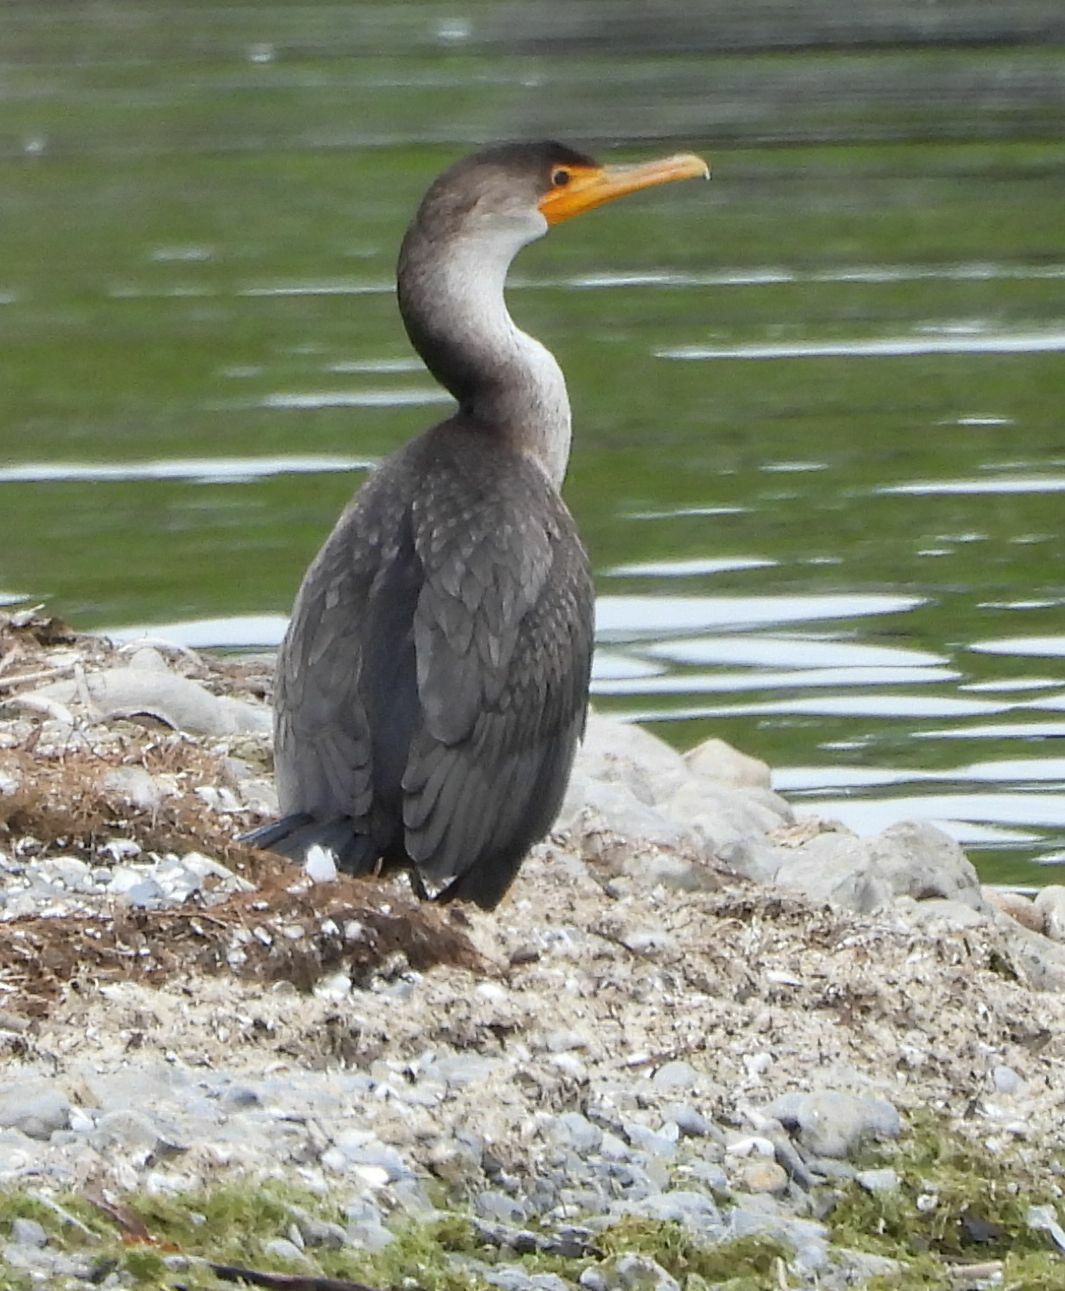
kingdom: Animalia
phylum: Chordata
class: Aves
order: Suliformes
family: Phalacrocoracidae
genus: Phalacrocorax
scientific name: Phalacrocorax auritus
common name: Double-crested cormorant
